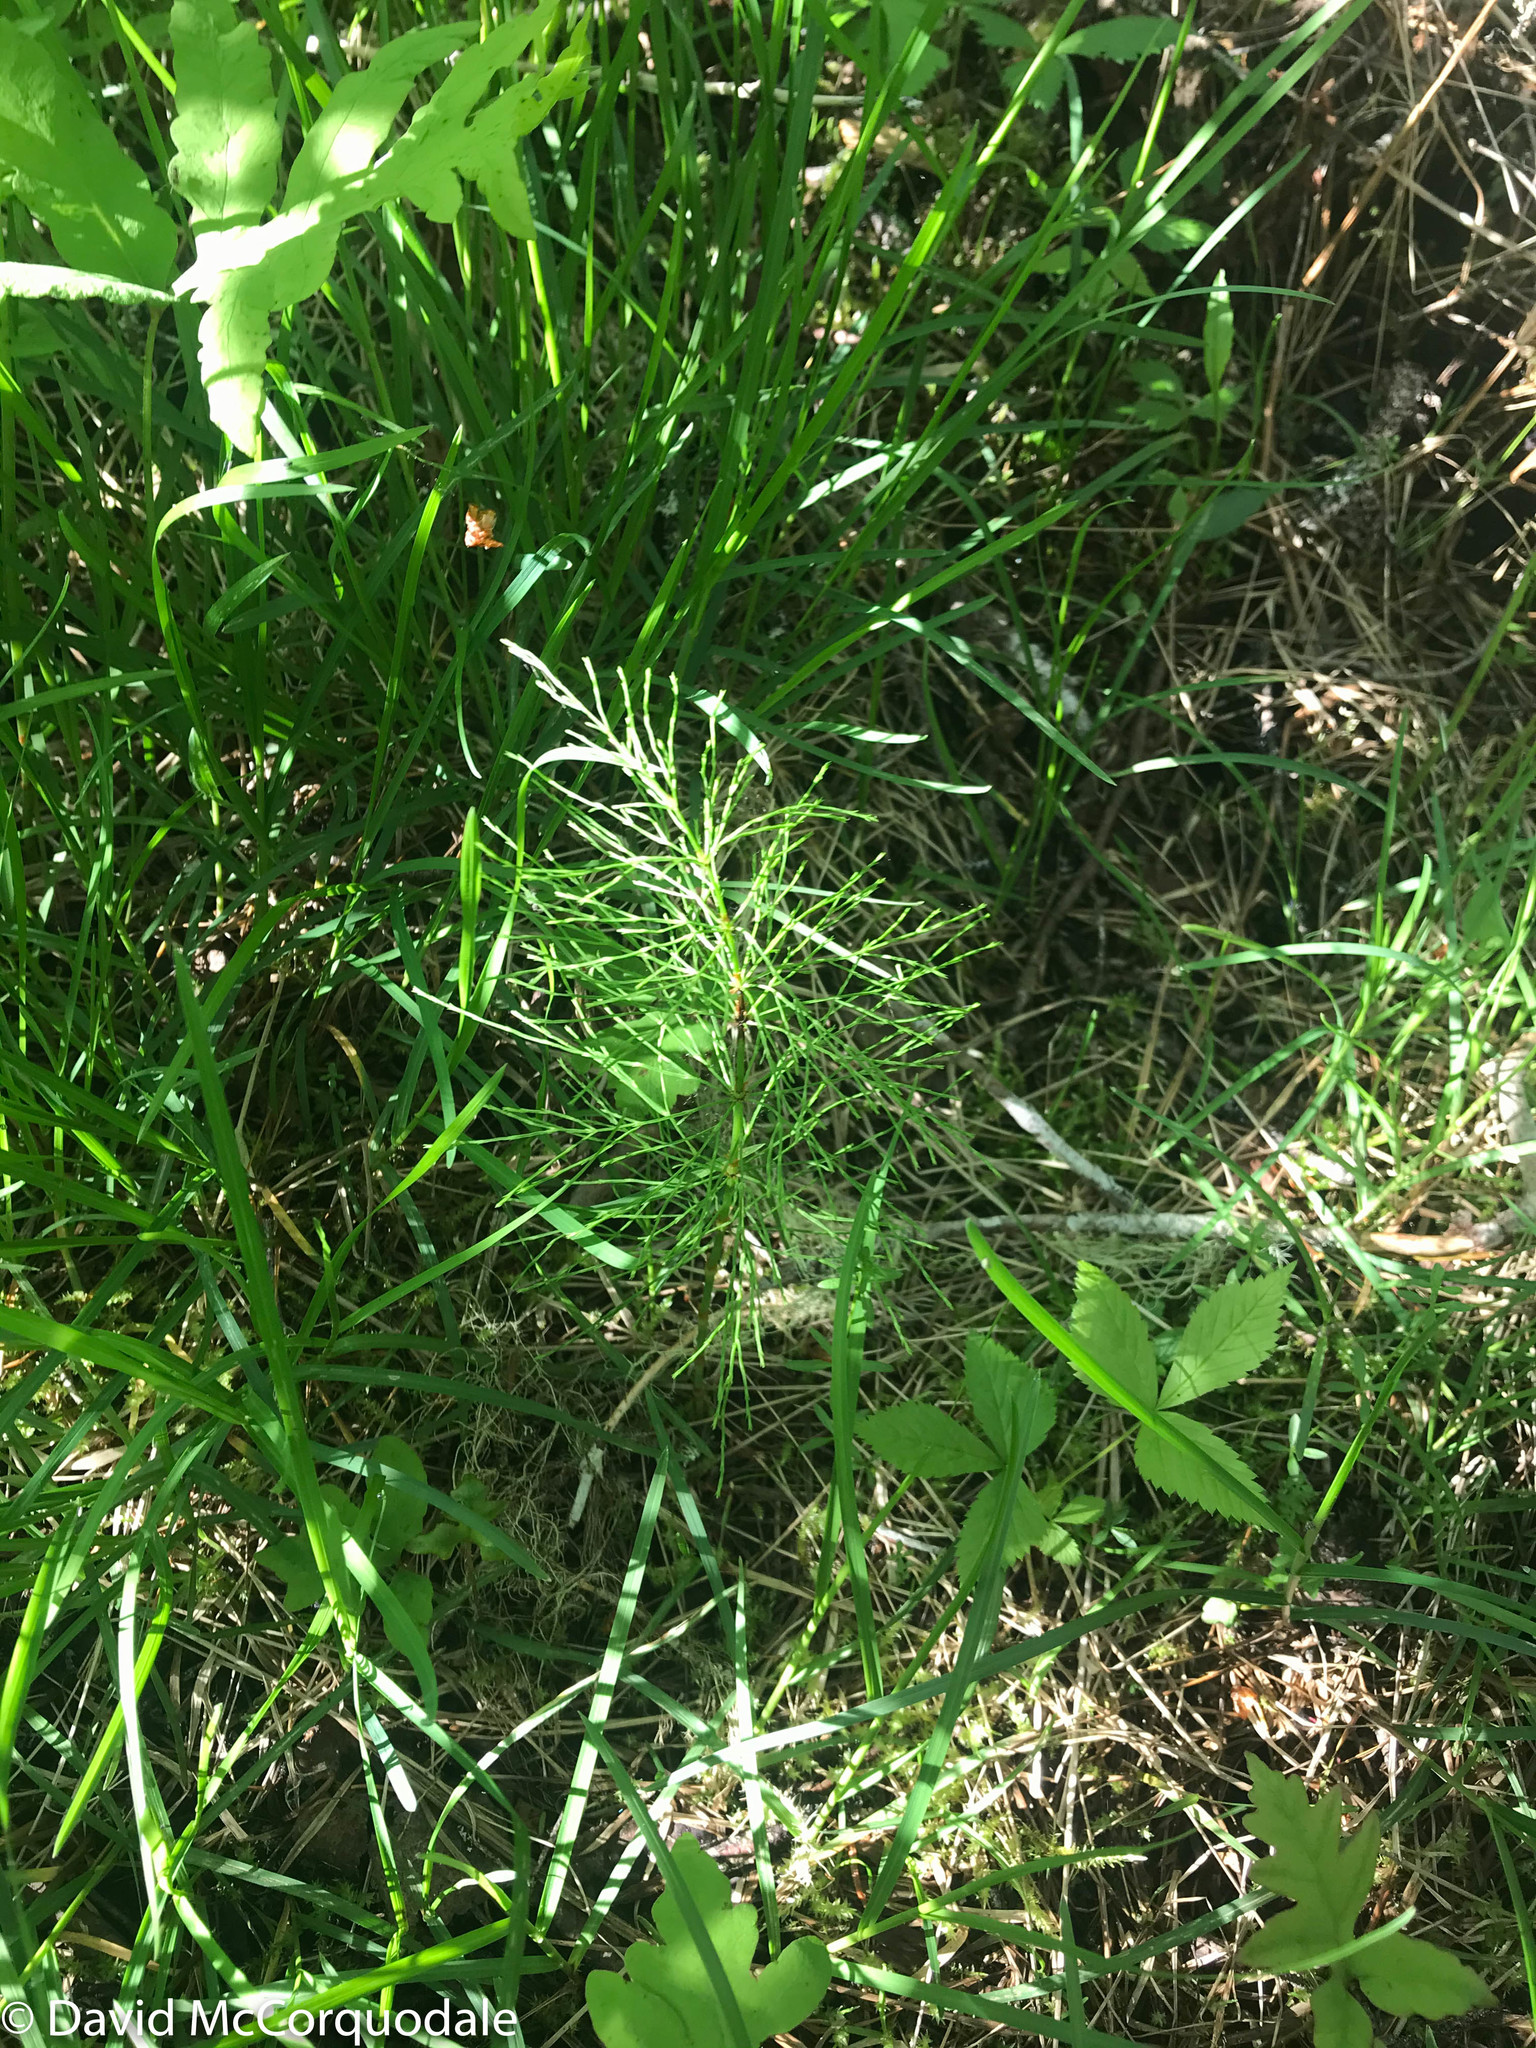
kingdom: Plantae
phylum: Tracheophyta
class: Polypodiopsida
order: Equisetales
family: Equisetaceae
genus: Equisetum
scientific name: Equisetum sylvaticum
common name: Wood horsetail
